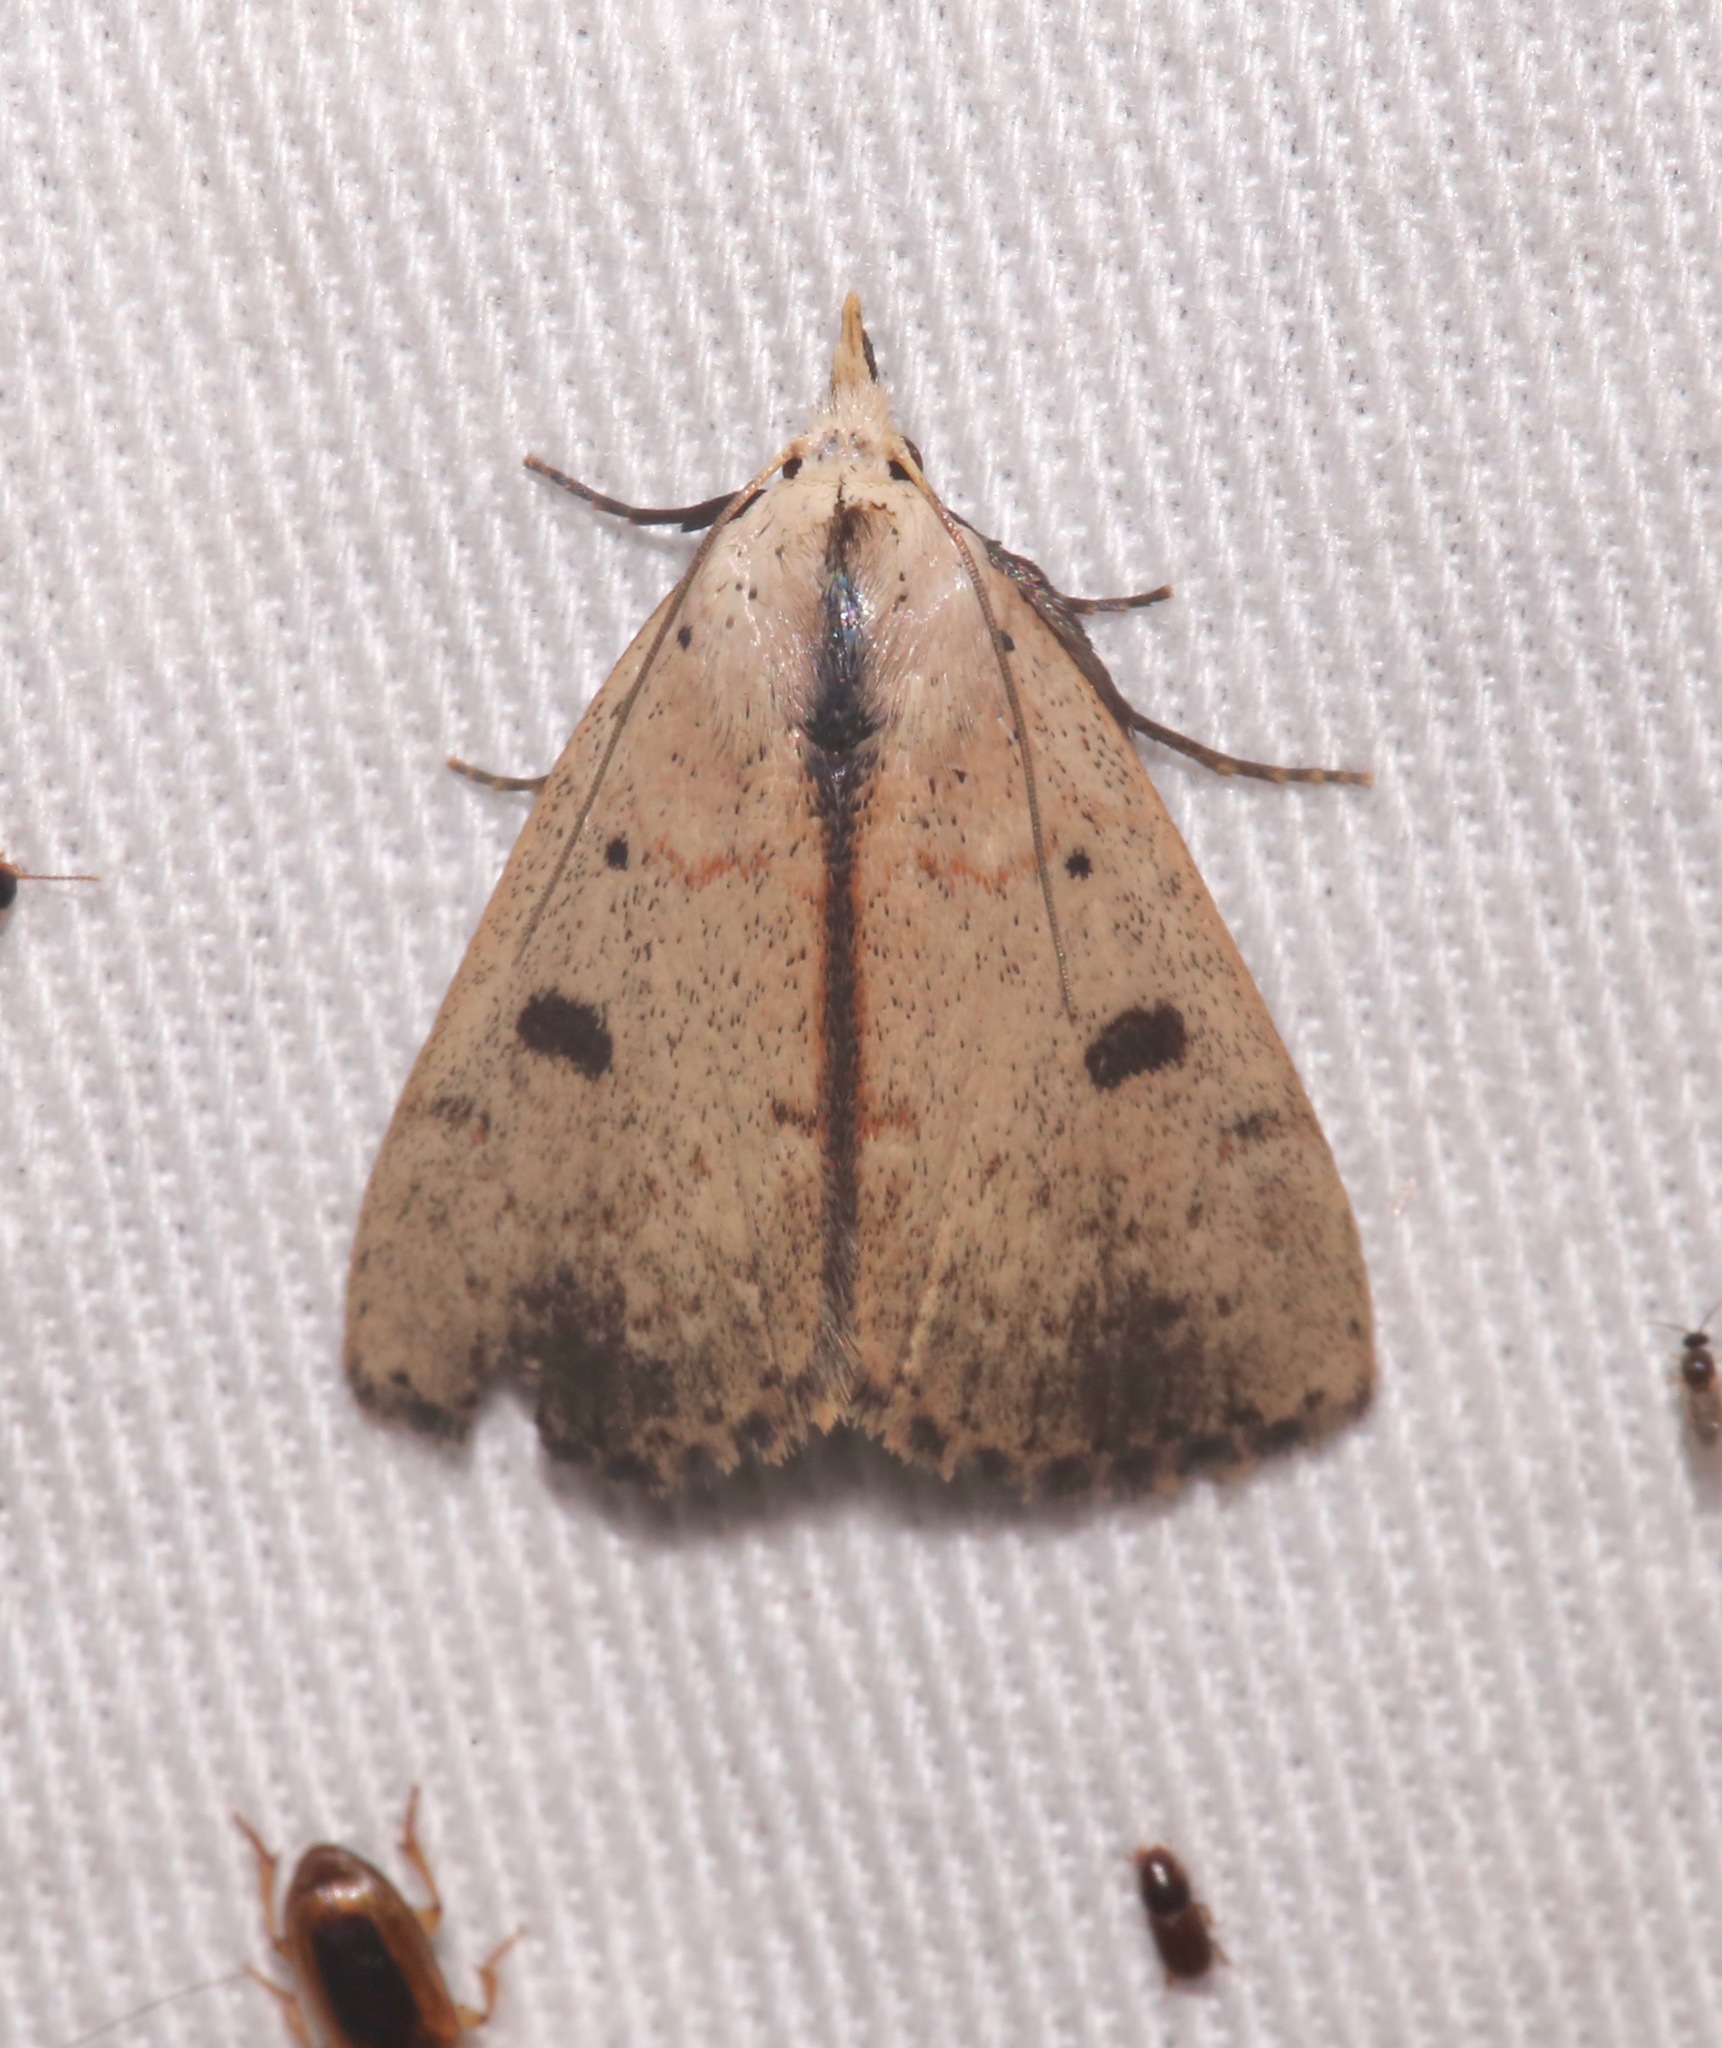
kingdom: Animalia
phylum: Arthropoda
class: Insecta
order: Lepidoptera
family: Erebidae
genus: Scolecocampa
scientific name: Scolecocampa liburna
